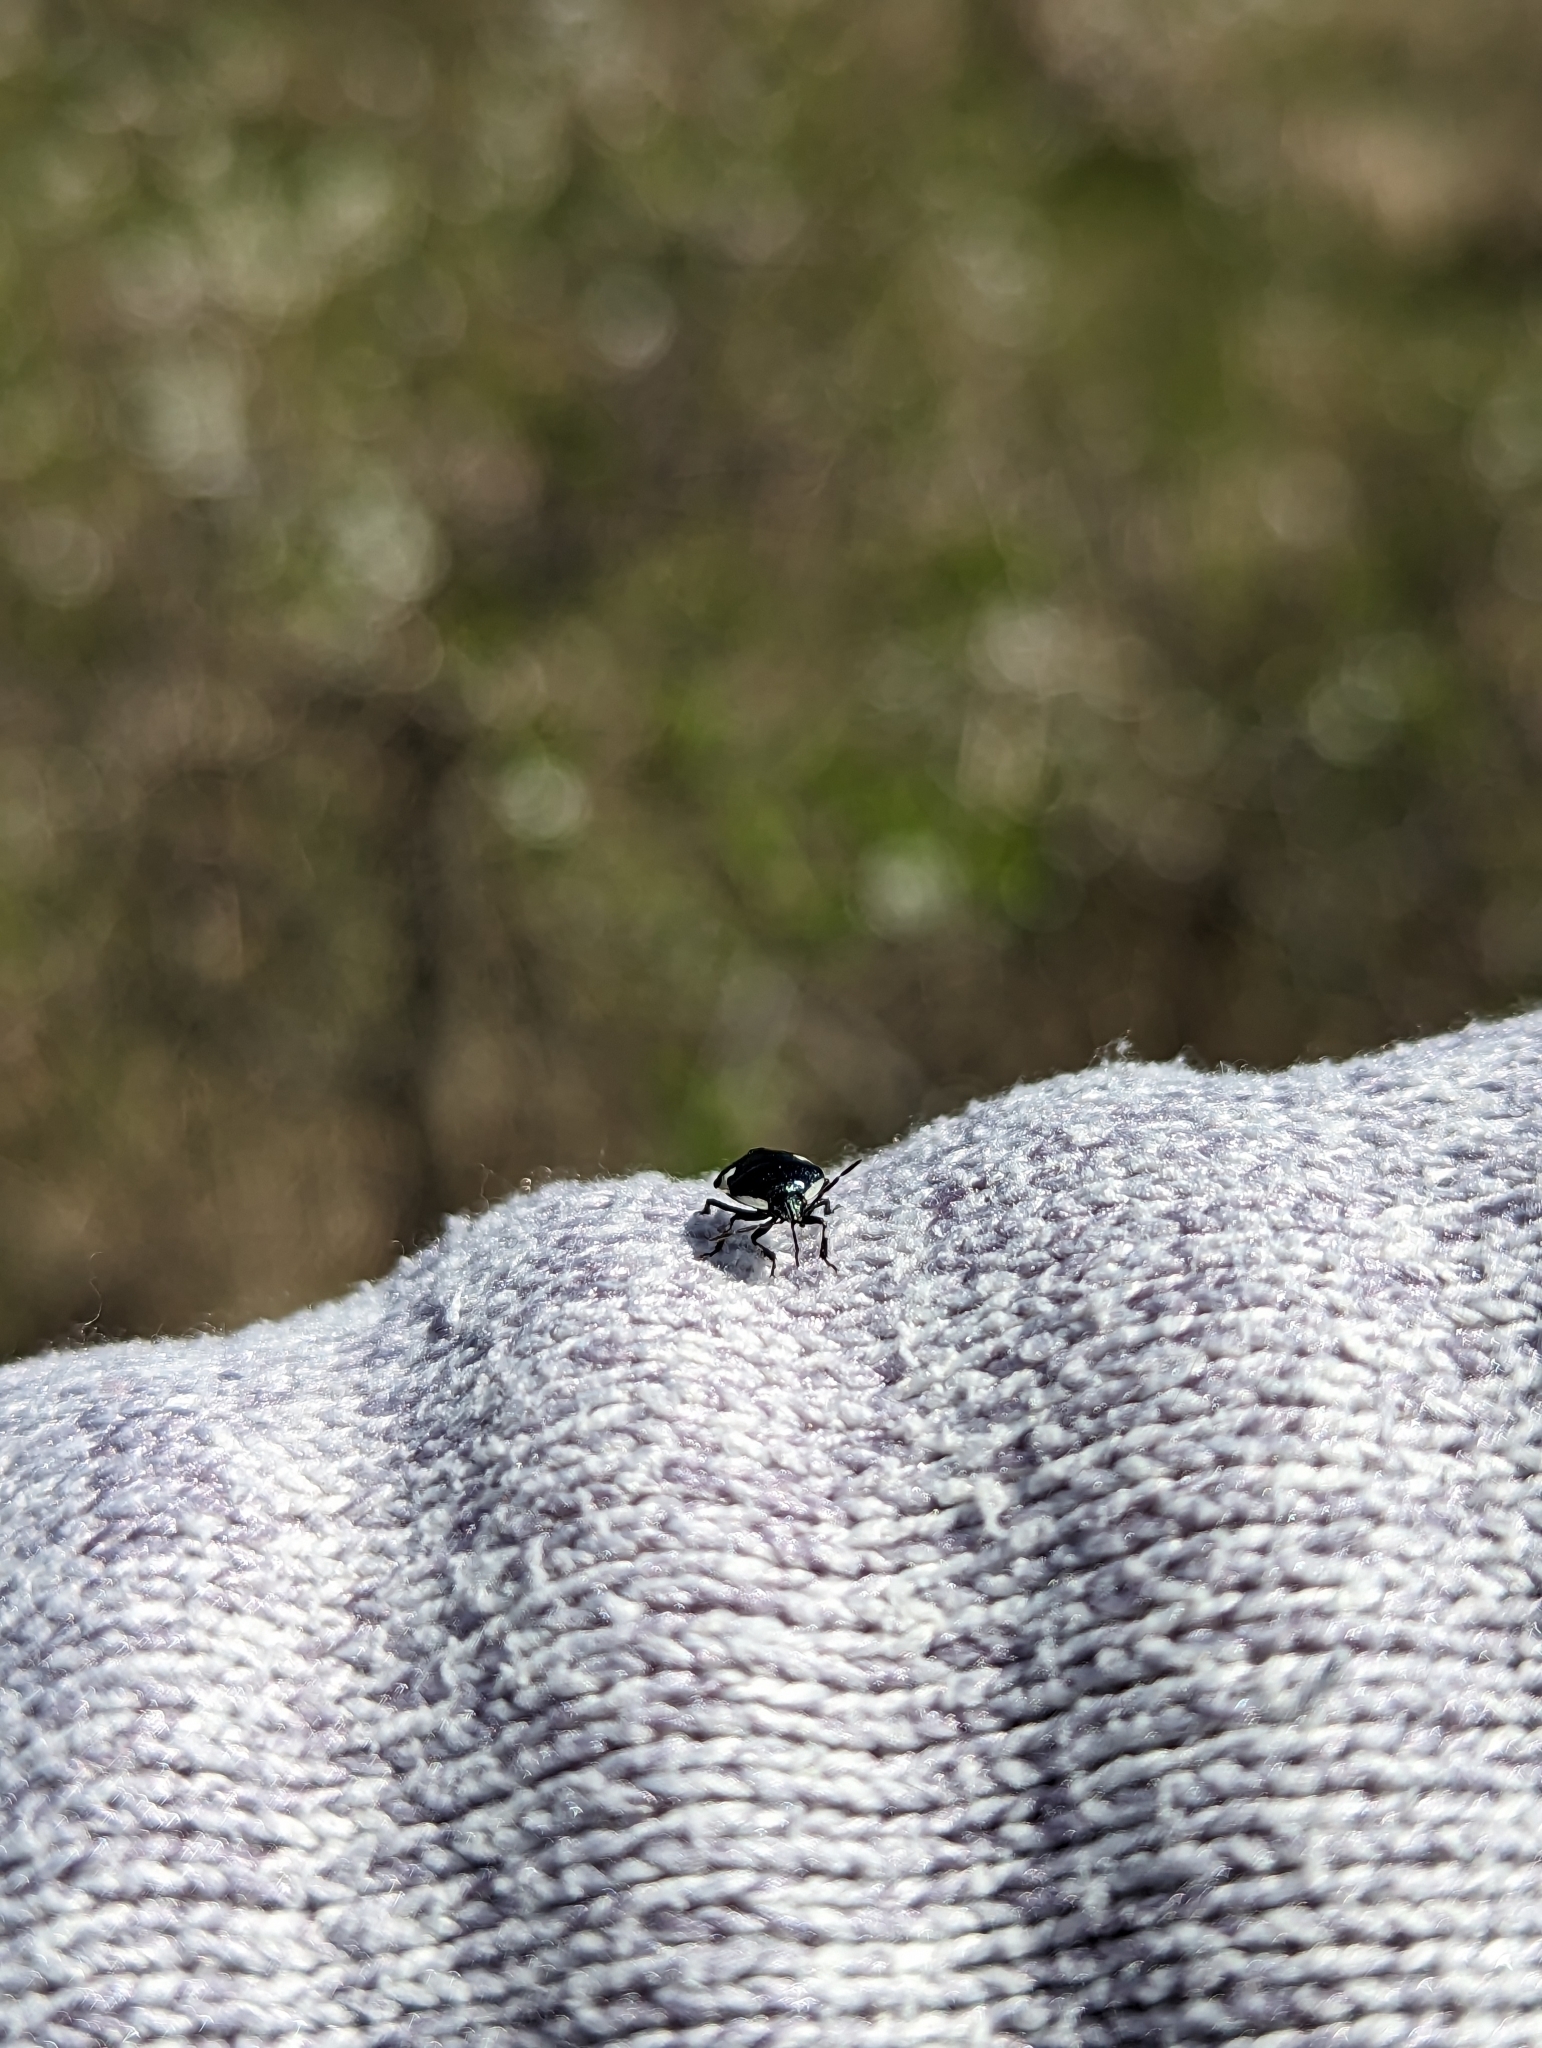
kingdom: Animalia
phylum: Arthropoda
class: Insecta
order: Hemiptera
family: Cydnidae
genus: Tritomegas
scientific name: Tritomegas sexmaculatus
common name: Rambur's pied shieldbug
